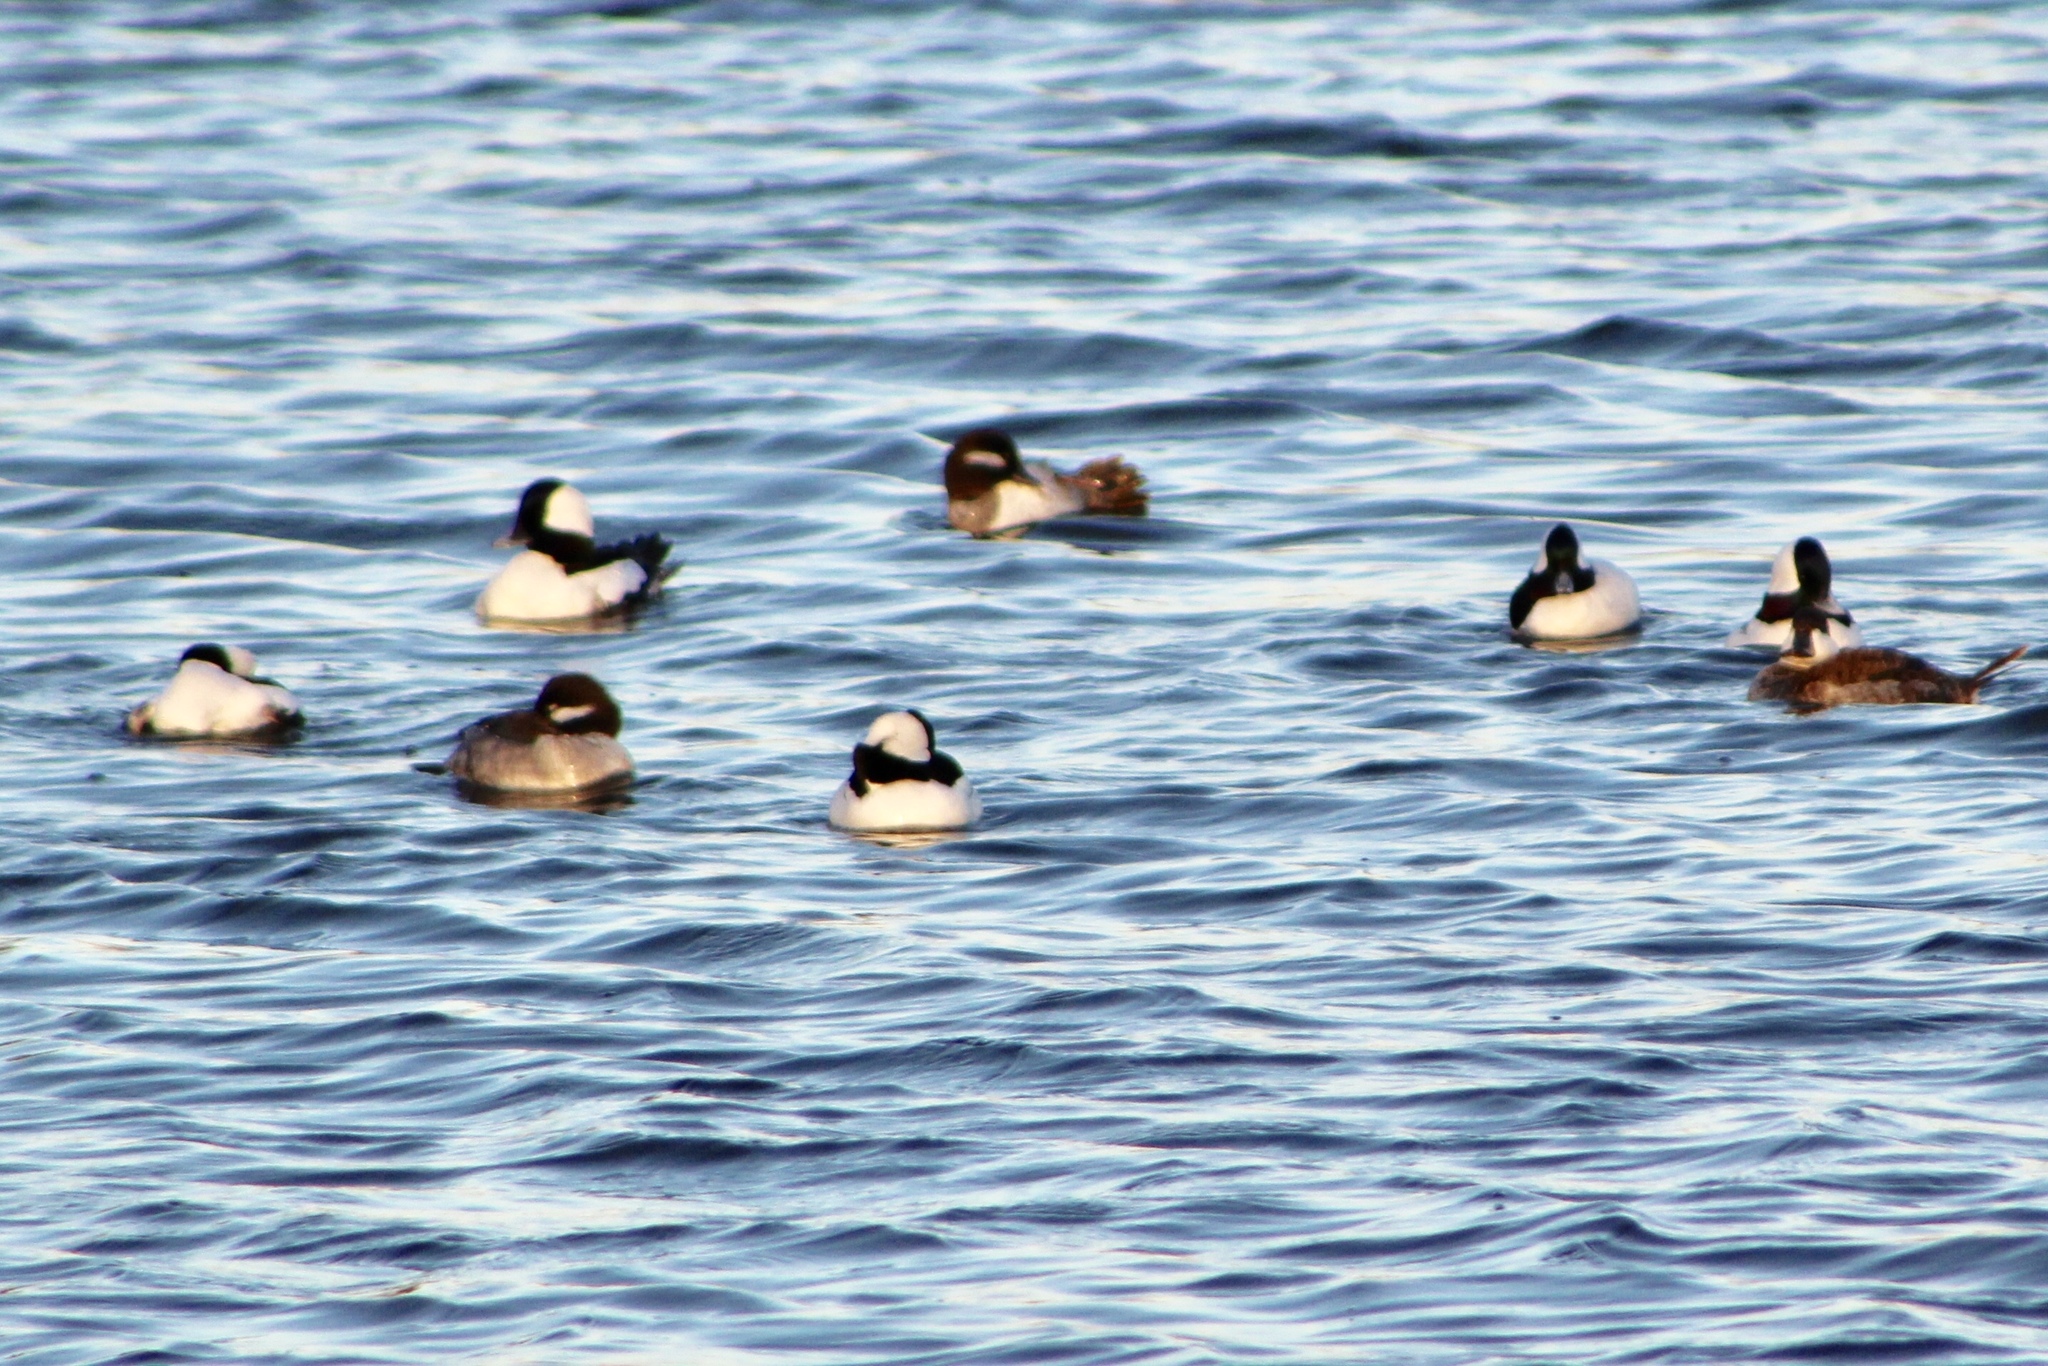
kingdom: Animalia
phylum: Chordata
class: Aves
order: Anseriformes
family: Anatidae
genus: Bucephala
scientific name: Bucephala albeola
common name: Bufflehead
